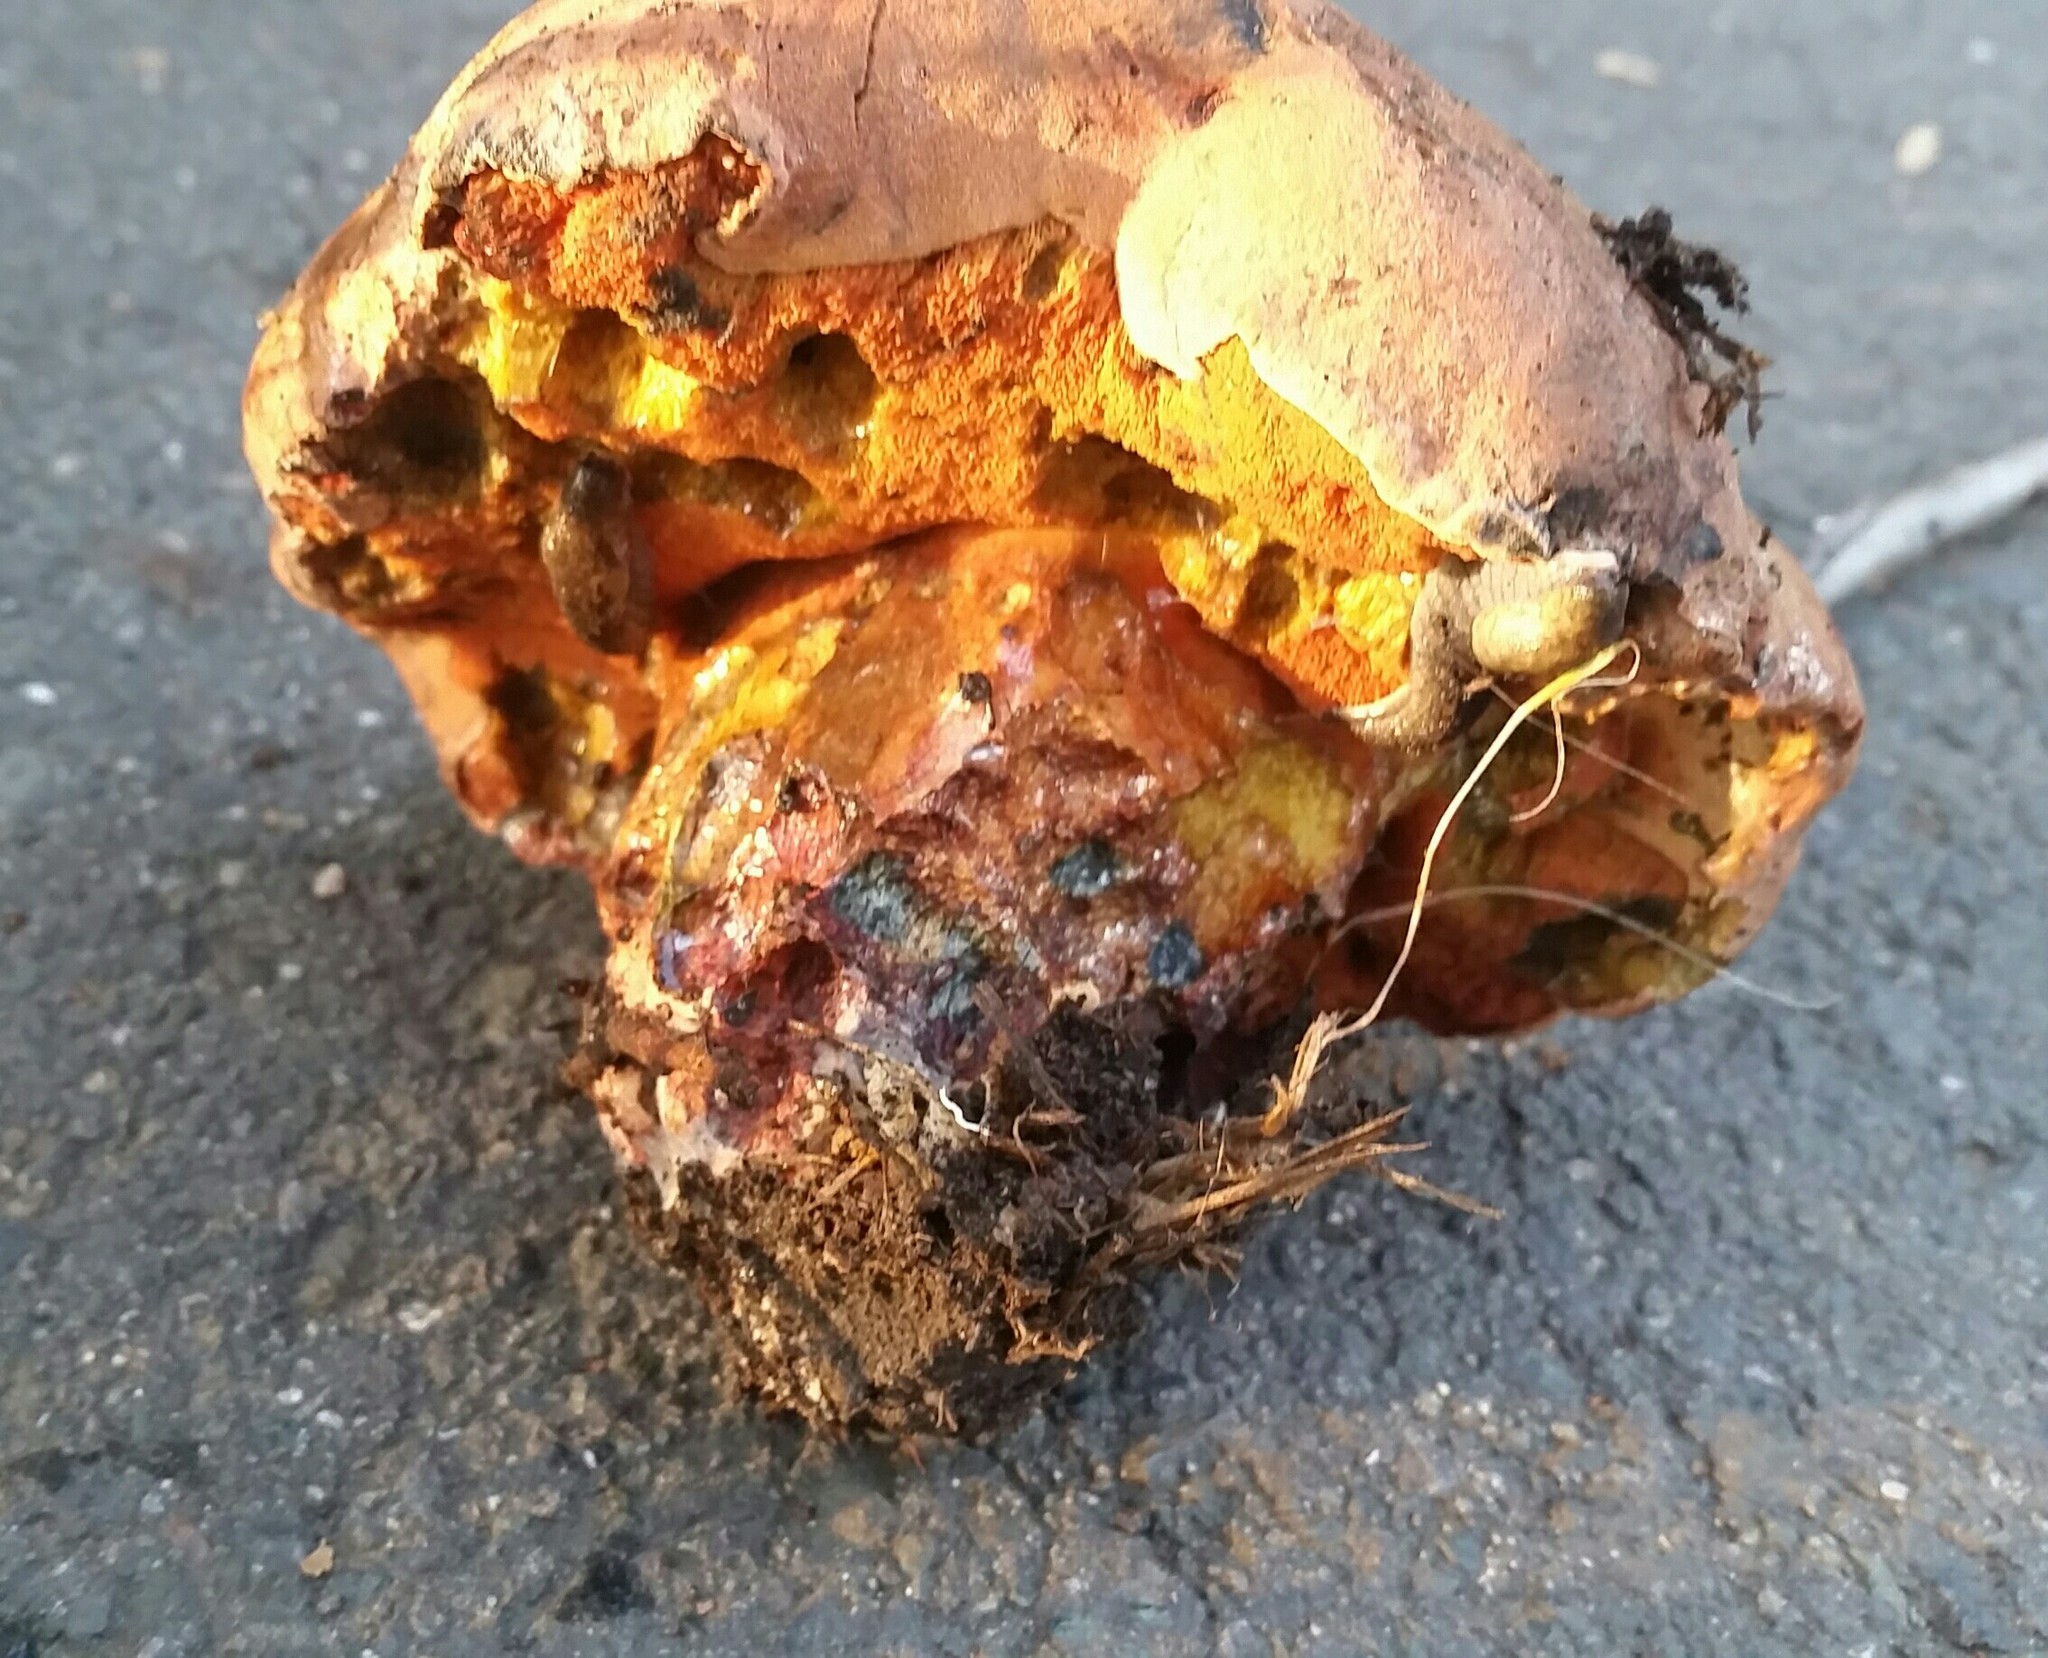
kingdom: Fungi
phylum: Basidiomycota
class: Agaricomycetes
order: Boletales
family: Boletaceae
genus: Suillellus
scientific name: Suillellus amygdalinus
